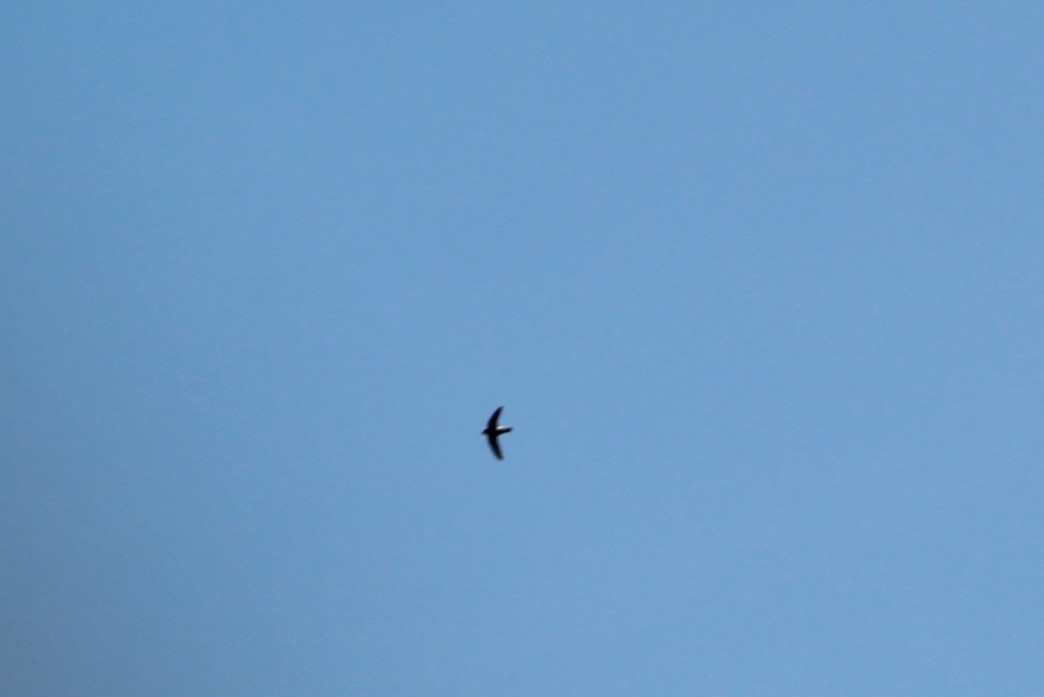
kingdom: Animalia
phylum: Chordata
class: Aves
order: Apodiformes
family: Apodidae
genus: Apus
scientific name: Apus affinis
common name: Little swift
